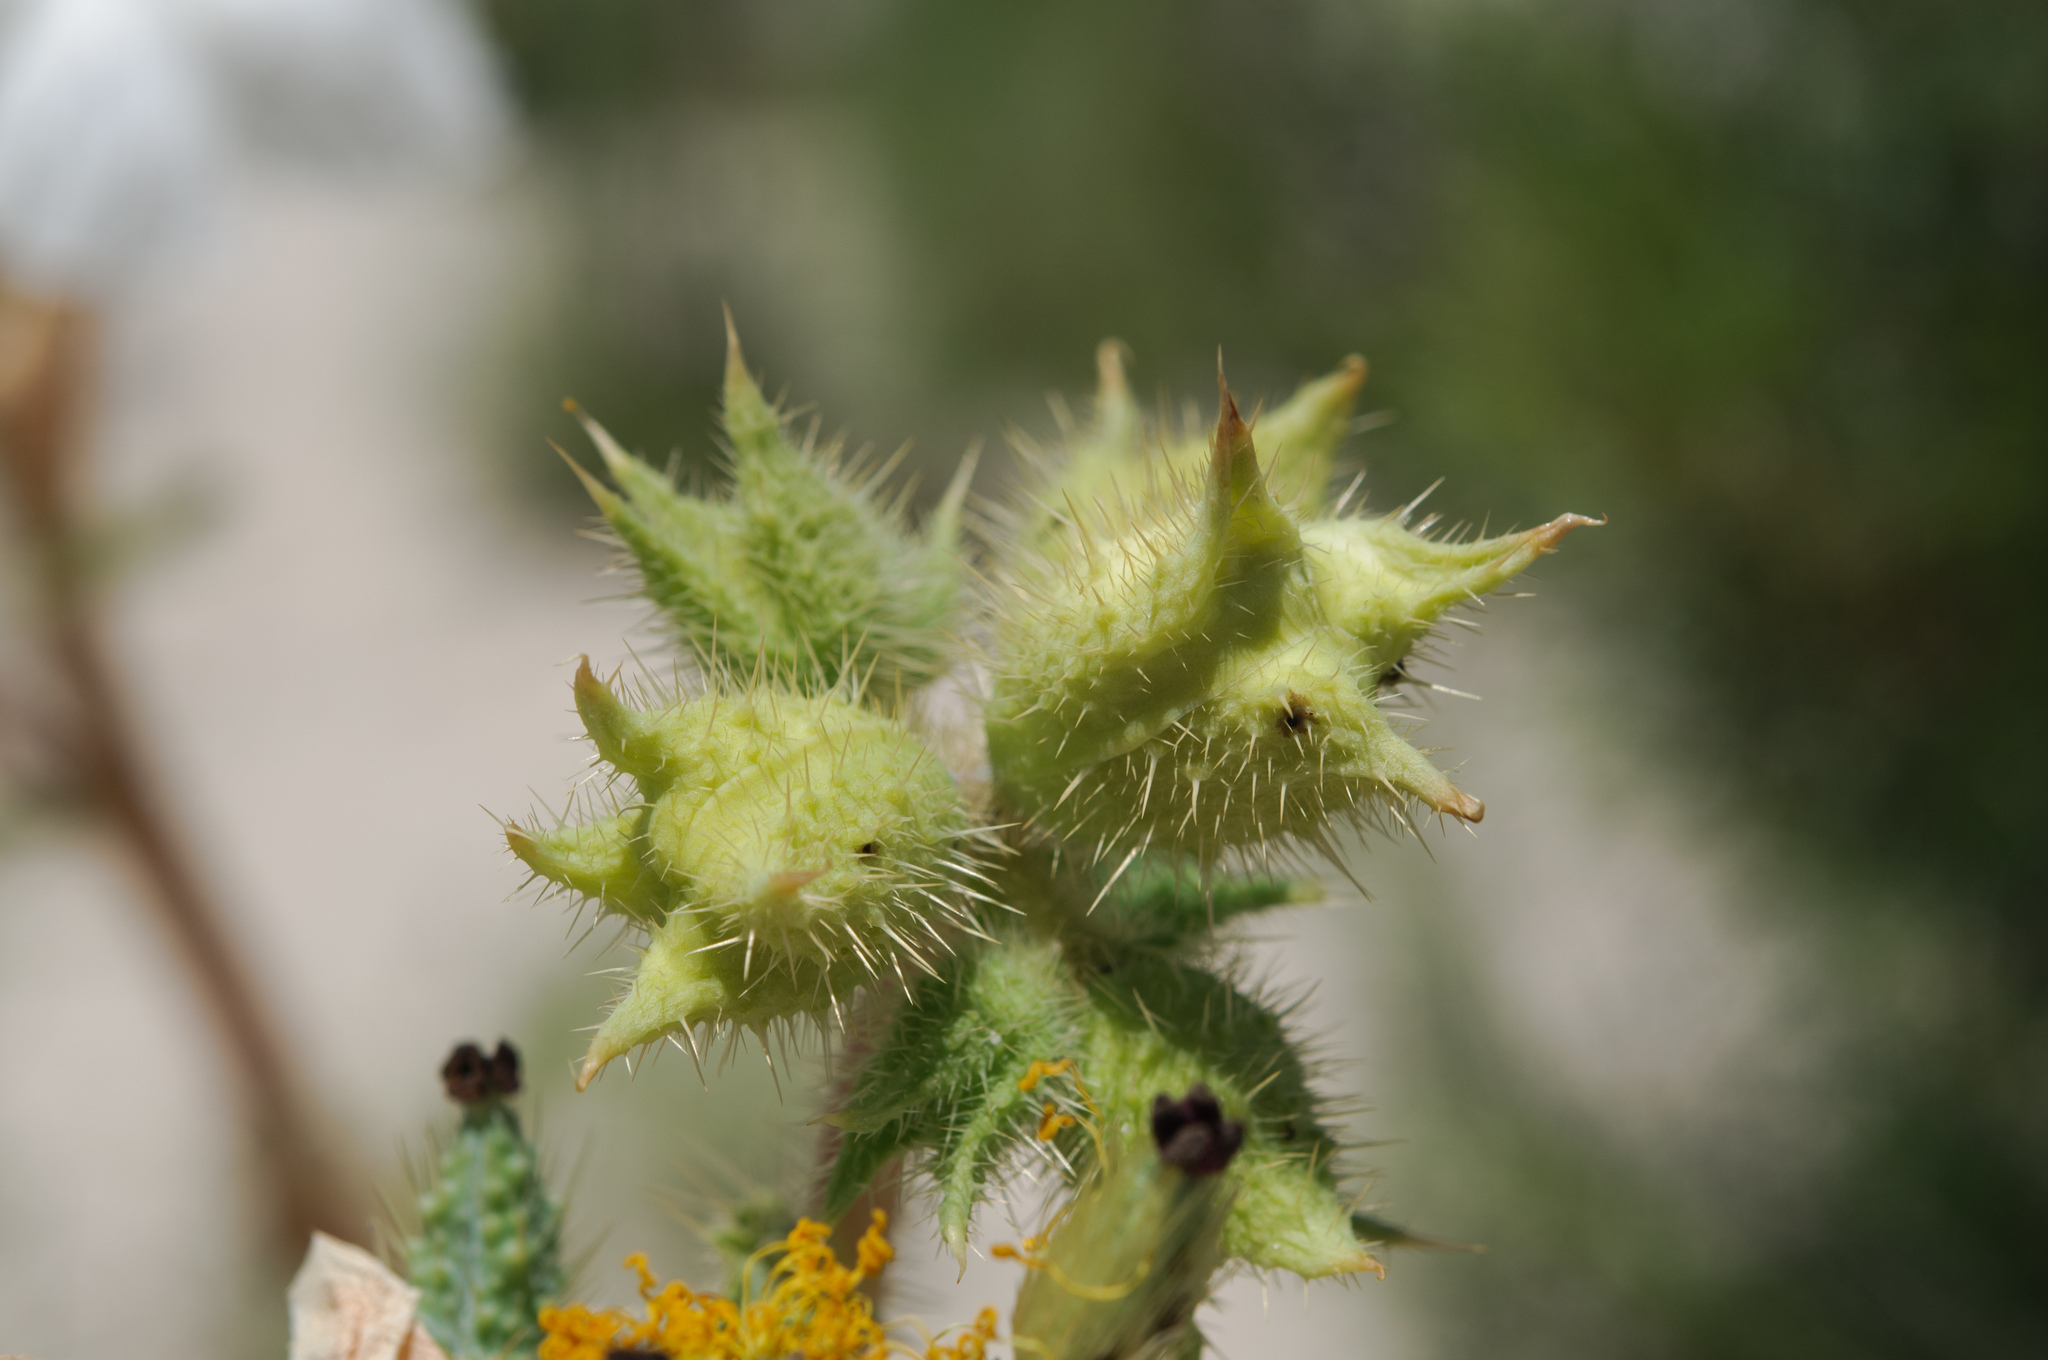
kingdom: Plantae
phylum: Tracheophyta
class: Magnoliopsida
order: Ranunculales
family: Papaveraceae
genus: Argemone
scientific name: Argemone munita
